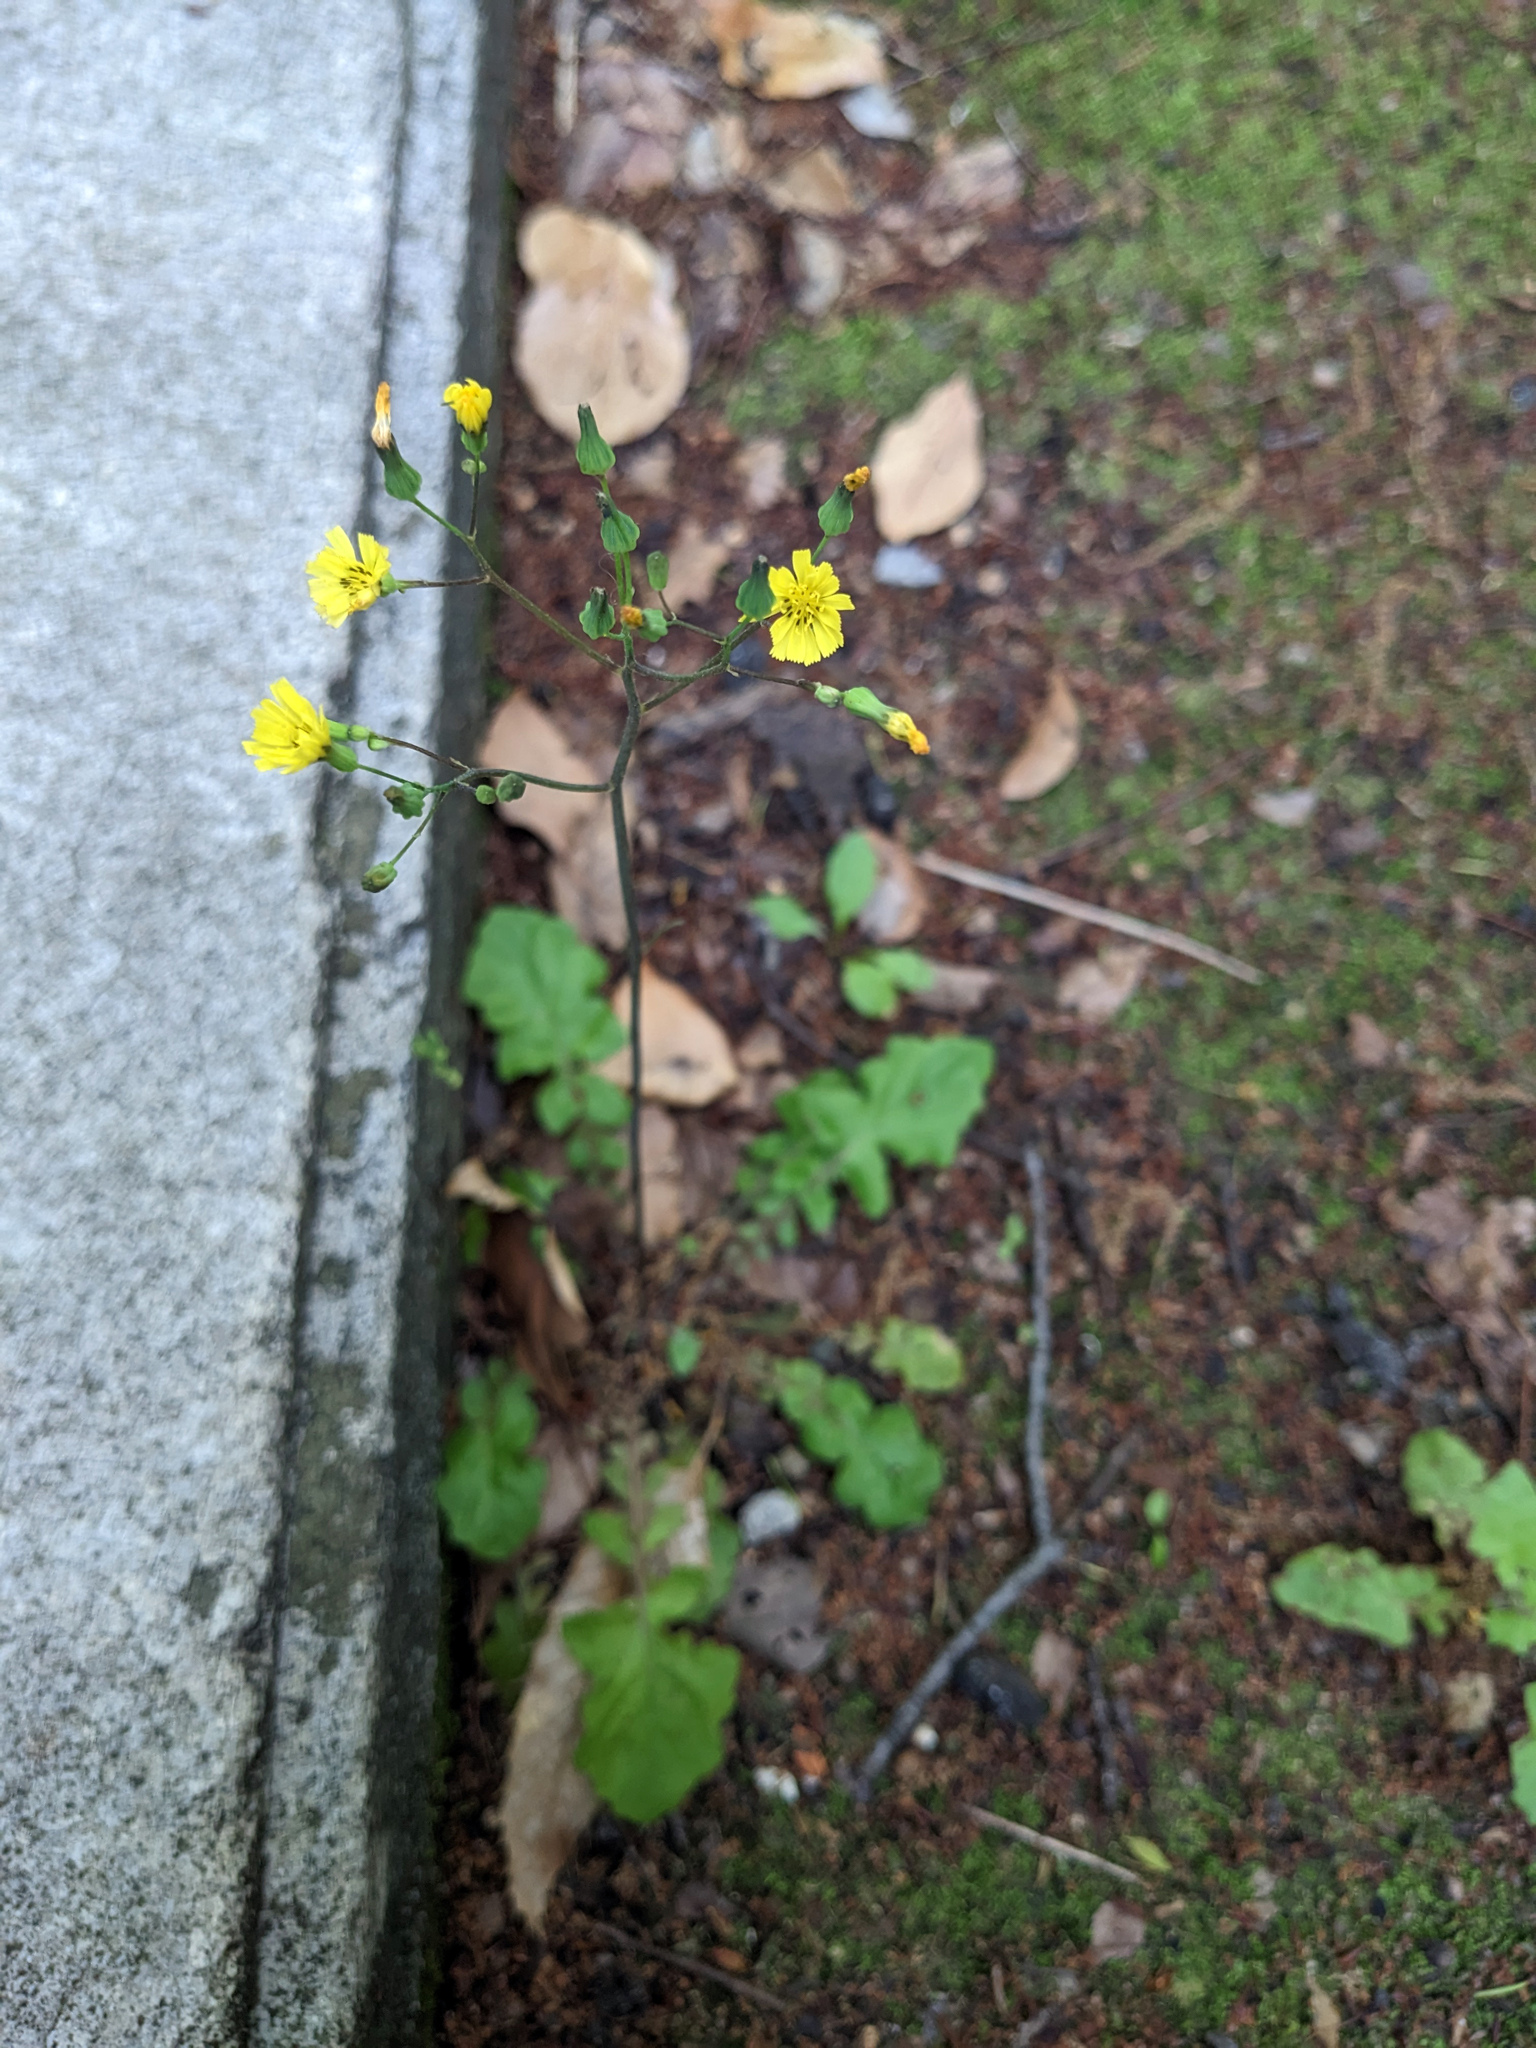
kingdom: Plantae
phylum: Tracheophyta
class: Magnoliopsida
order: Asterales
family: Asteraceae
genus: Youngia
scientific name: Youngia japonica
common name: Oriental false hawksbeard
